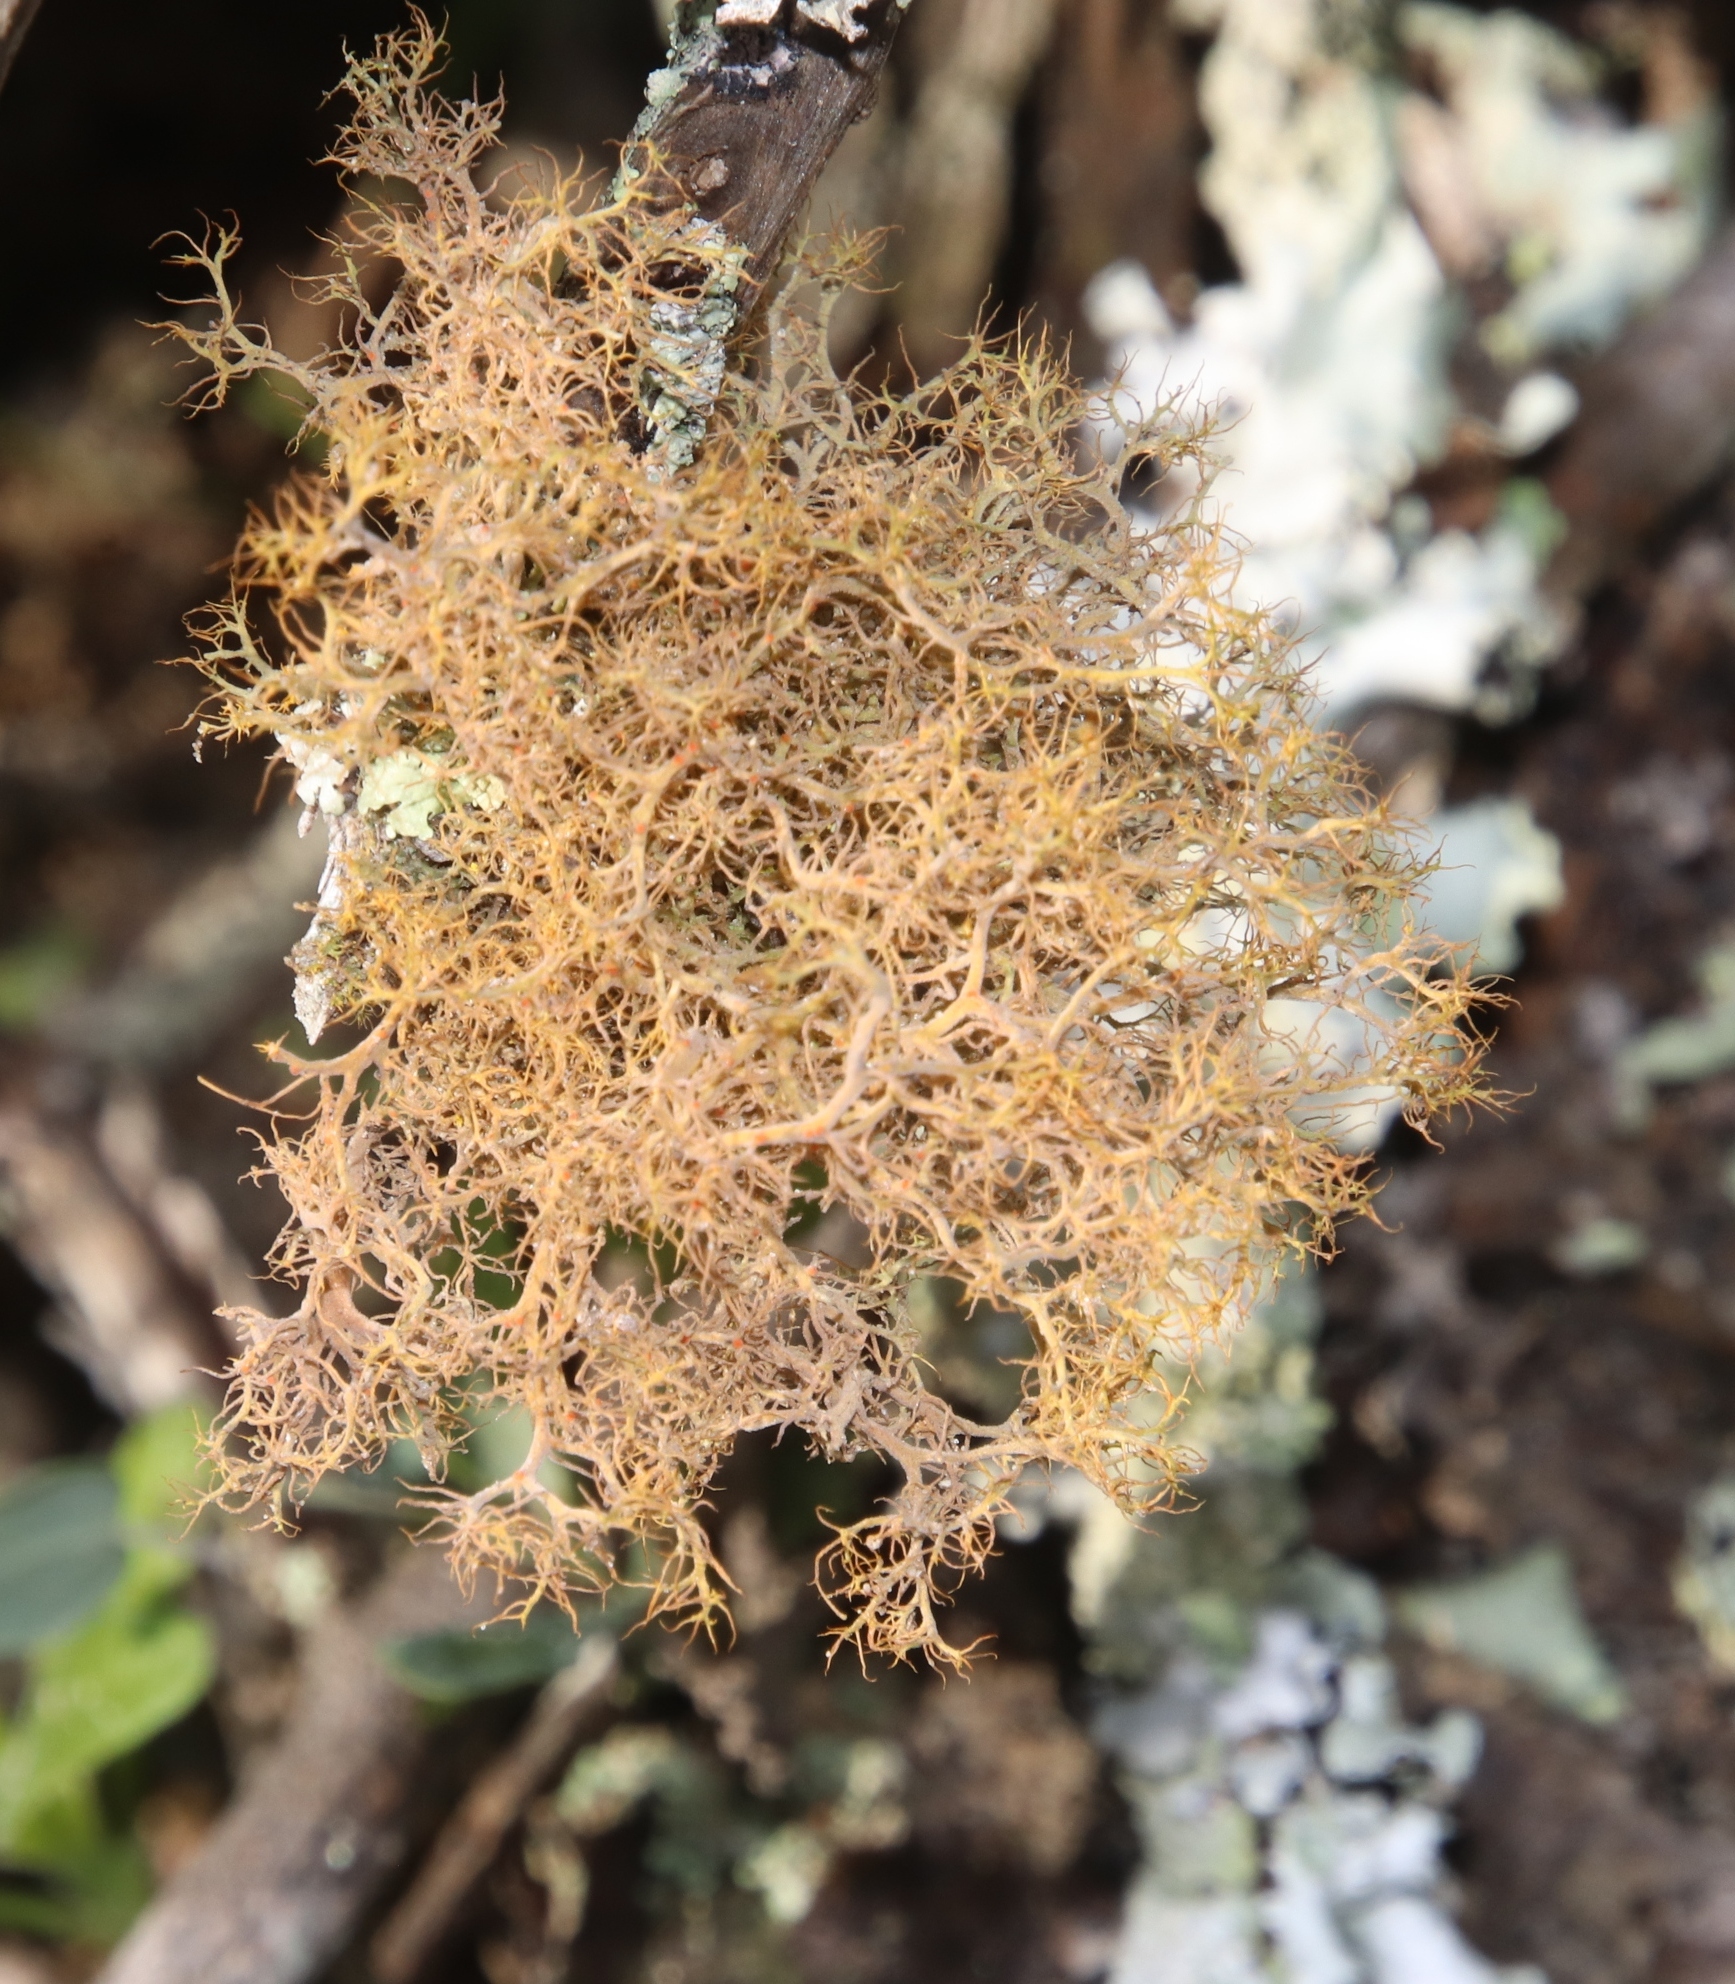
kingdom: Fungi
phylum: Ascomycota
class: Lecanoromycetes
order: Teloschistales
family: Teloschistaceae
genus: Teloschistes
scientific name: Teloschistes capensis
